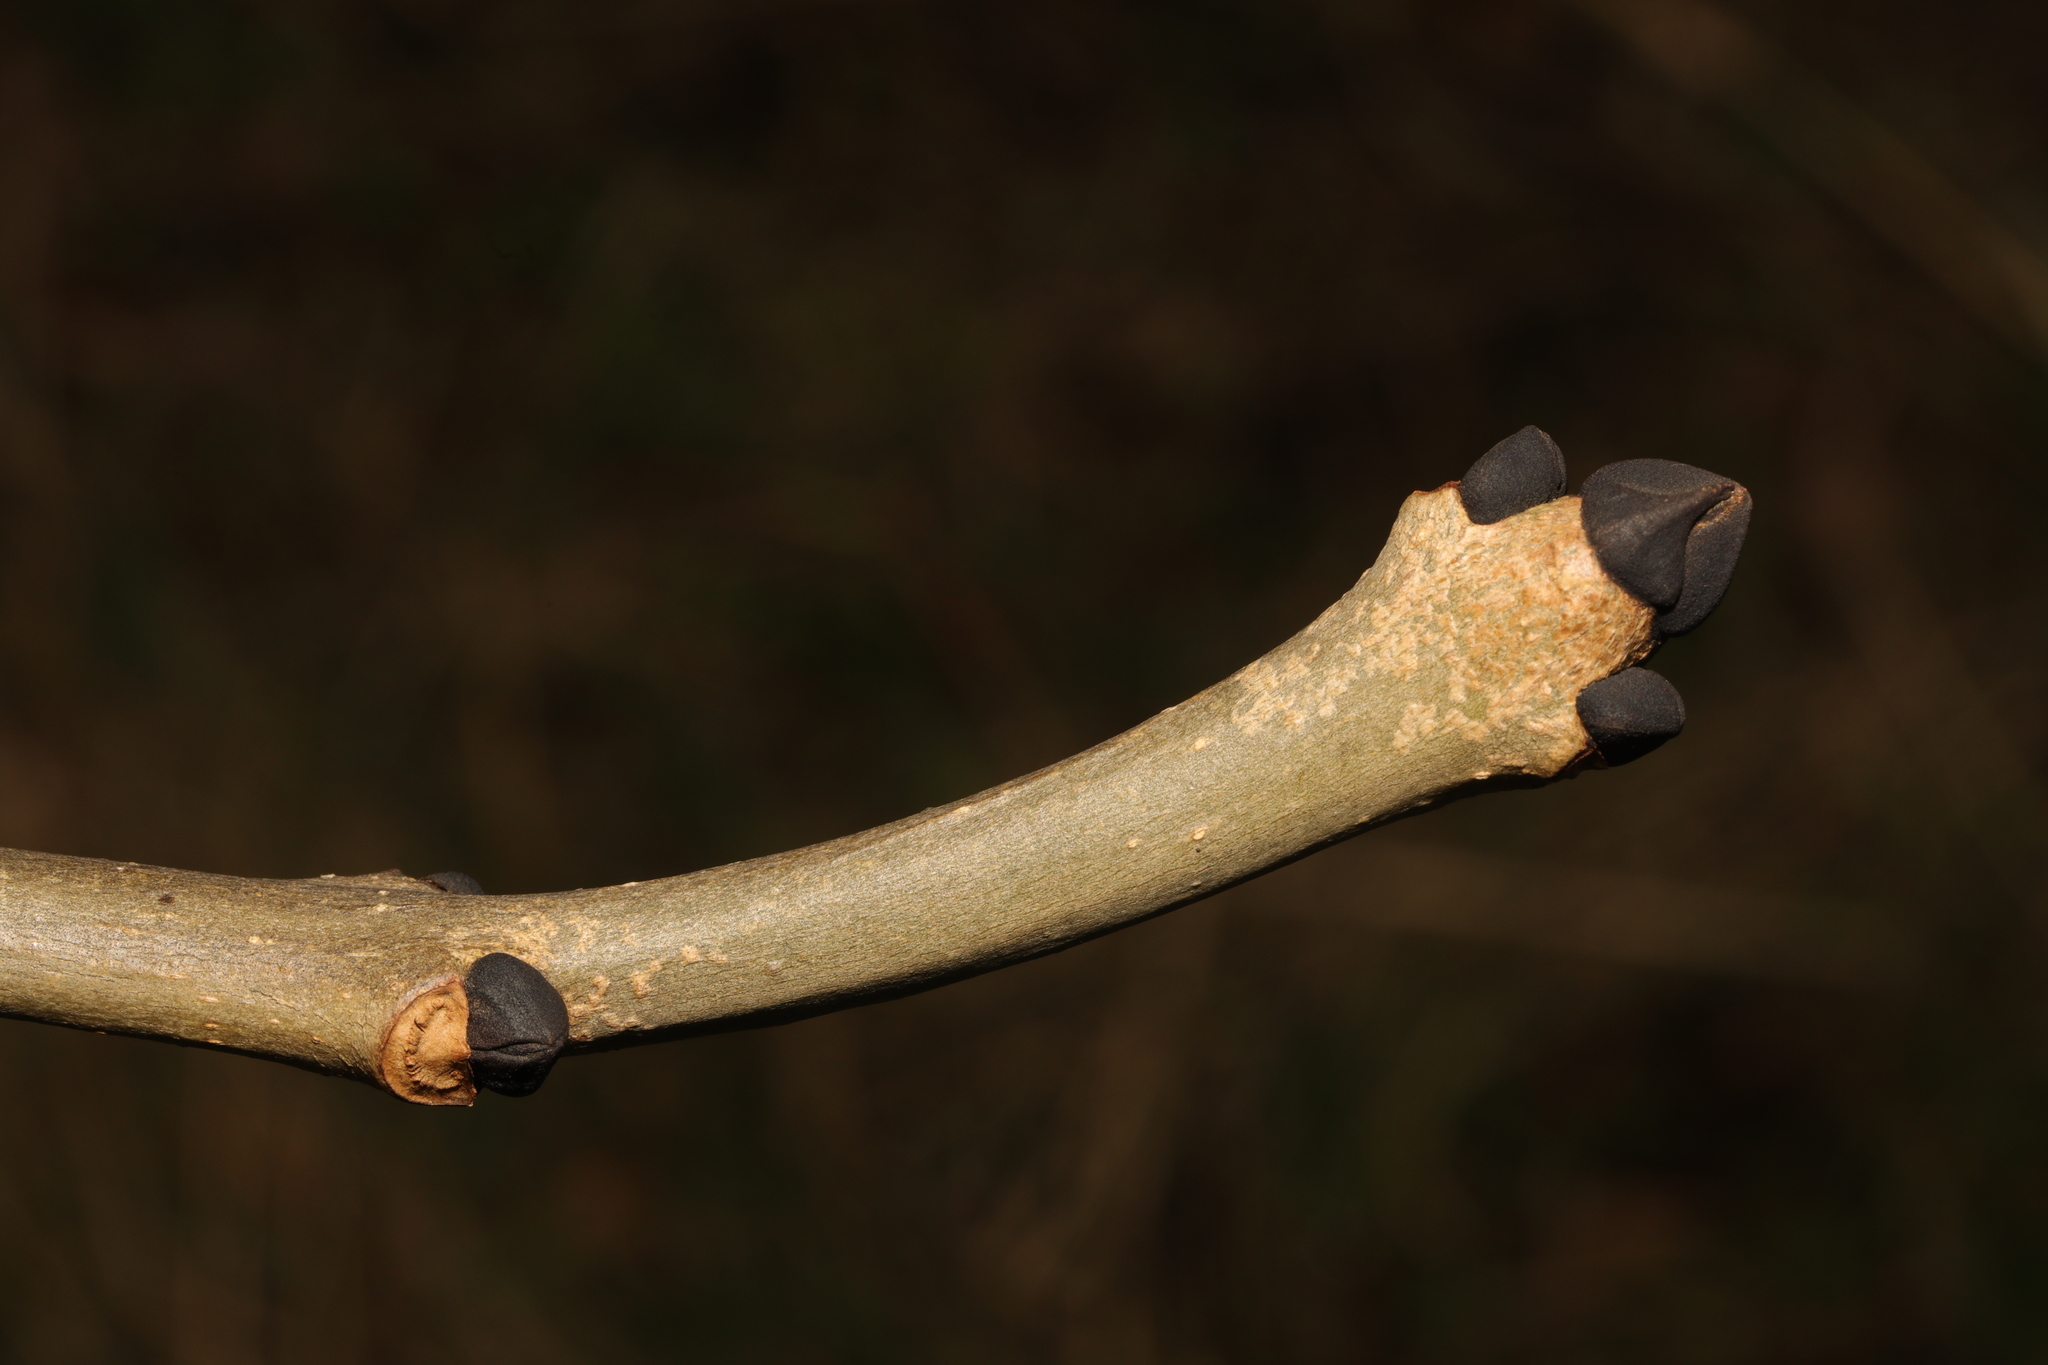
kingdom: Plantae
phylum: Tracheophyta
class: Magnoliopsida
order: Lamiales
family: Oleaceae
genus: Fraxinus
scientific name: Fraxinus excelsior
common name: European ash
